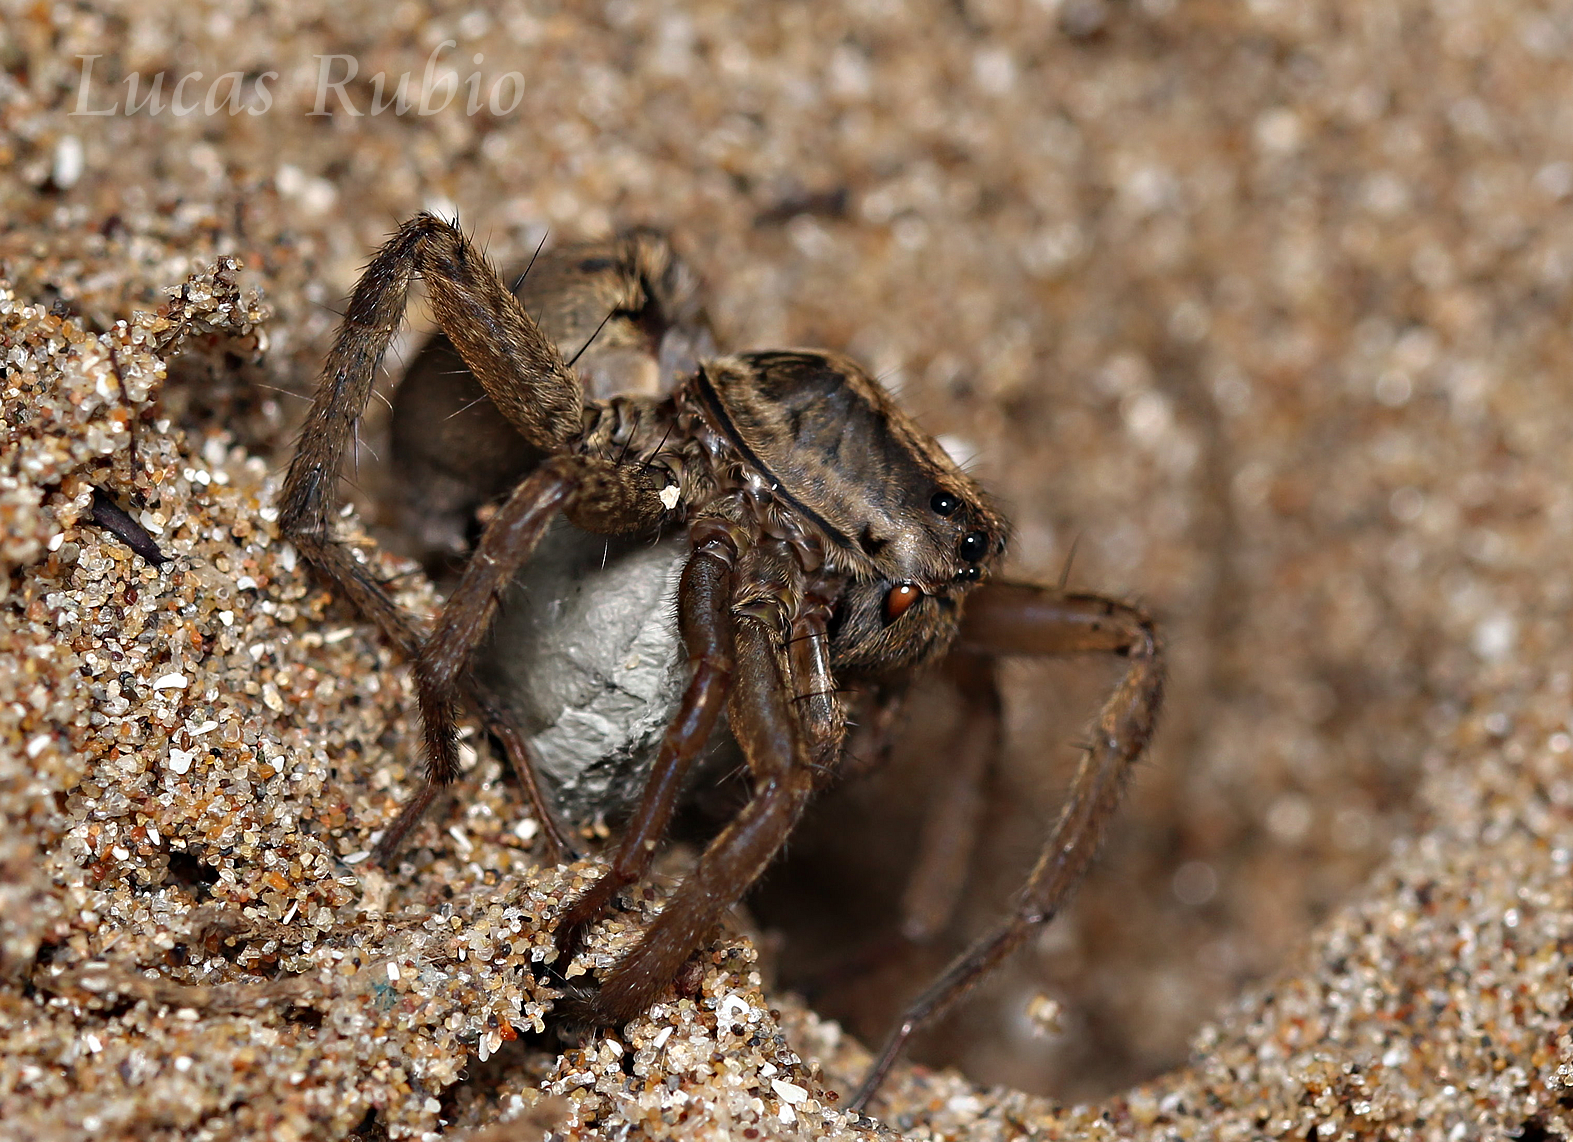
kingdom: Animalia
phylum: Arthropoda
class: Arachnida
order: Araneae
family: Lycosidae
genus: Alopecosa
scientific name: Alopecosa moesta
